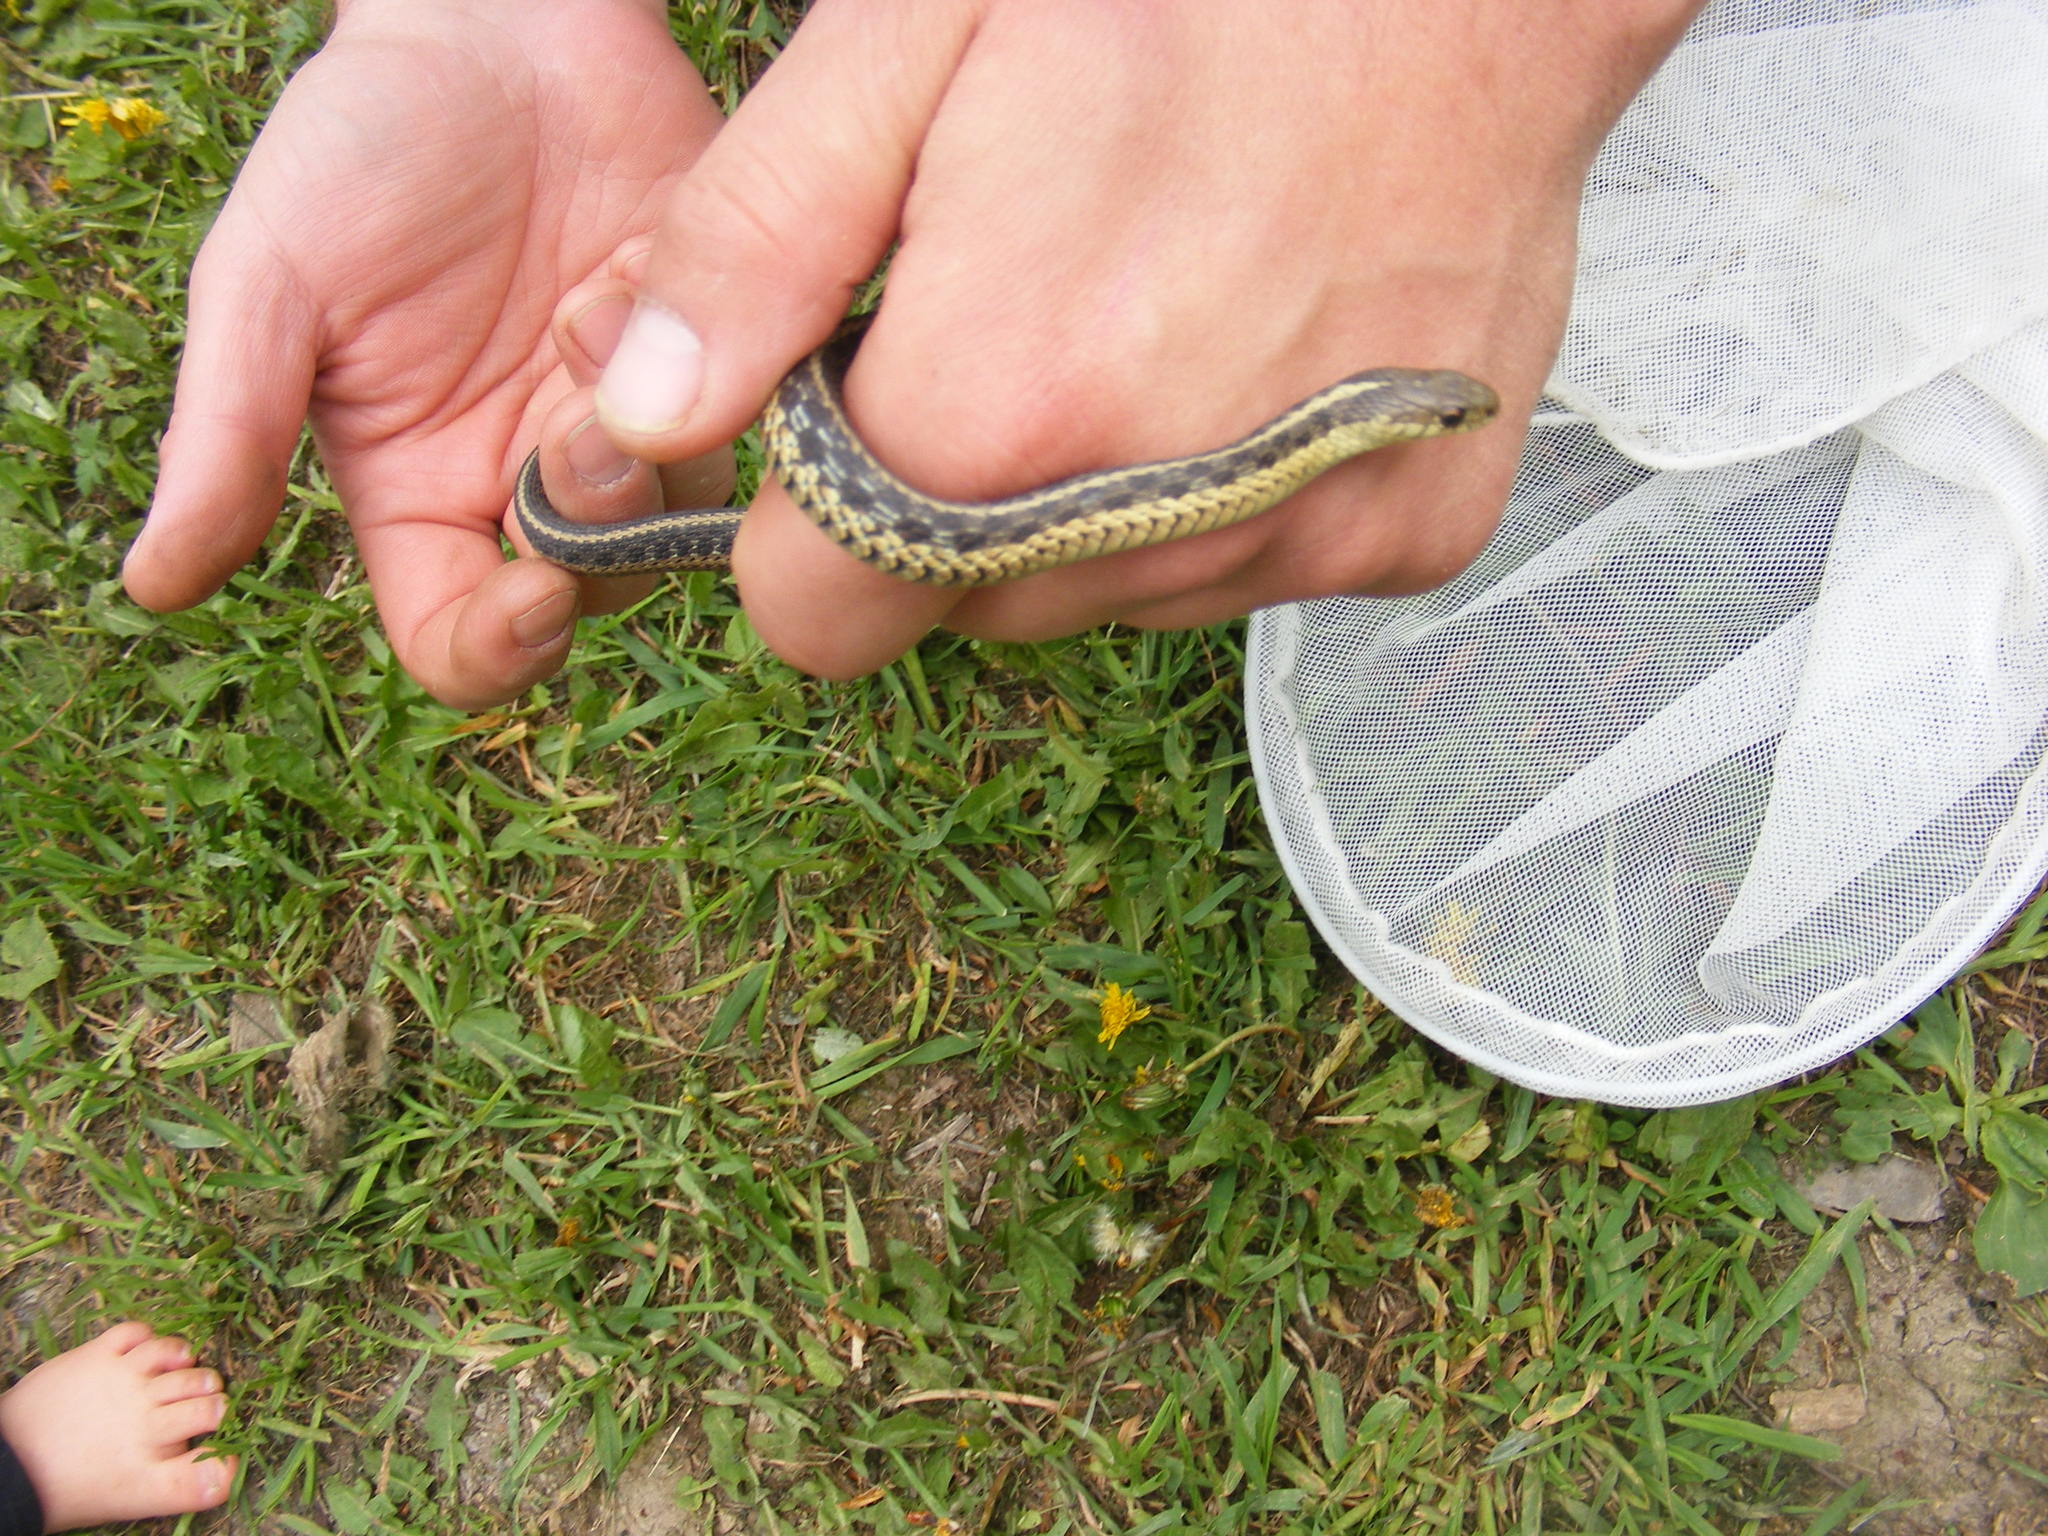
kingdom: Animalia
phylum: Chordata
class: Squamata
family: Colubridae
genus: Thamnophis
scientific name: Thamnophis sirtalis
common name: Common garter snake
